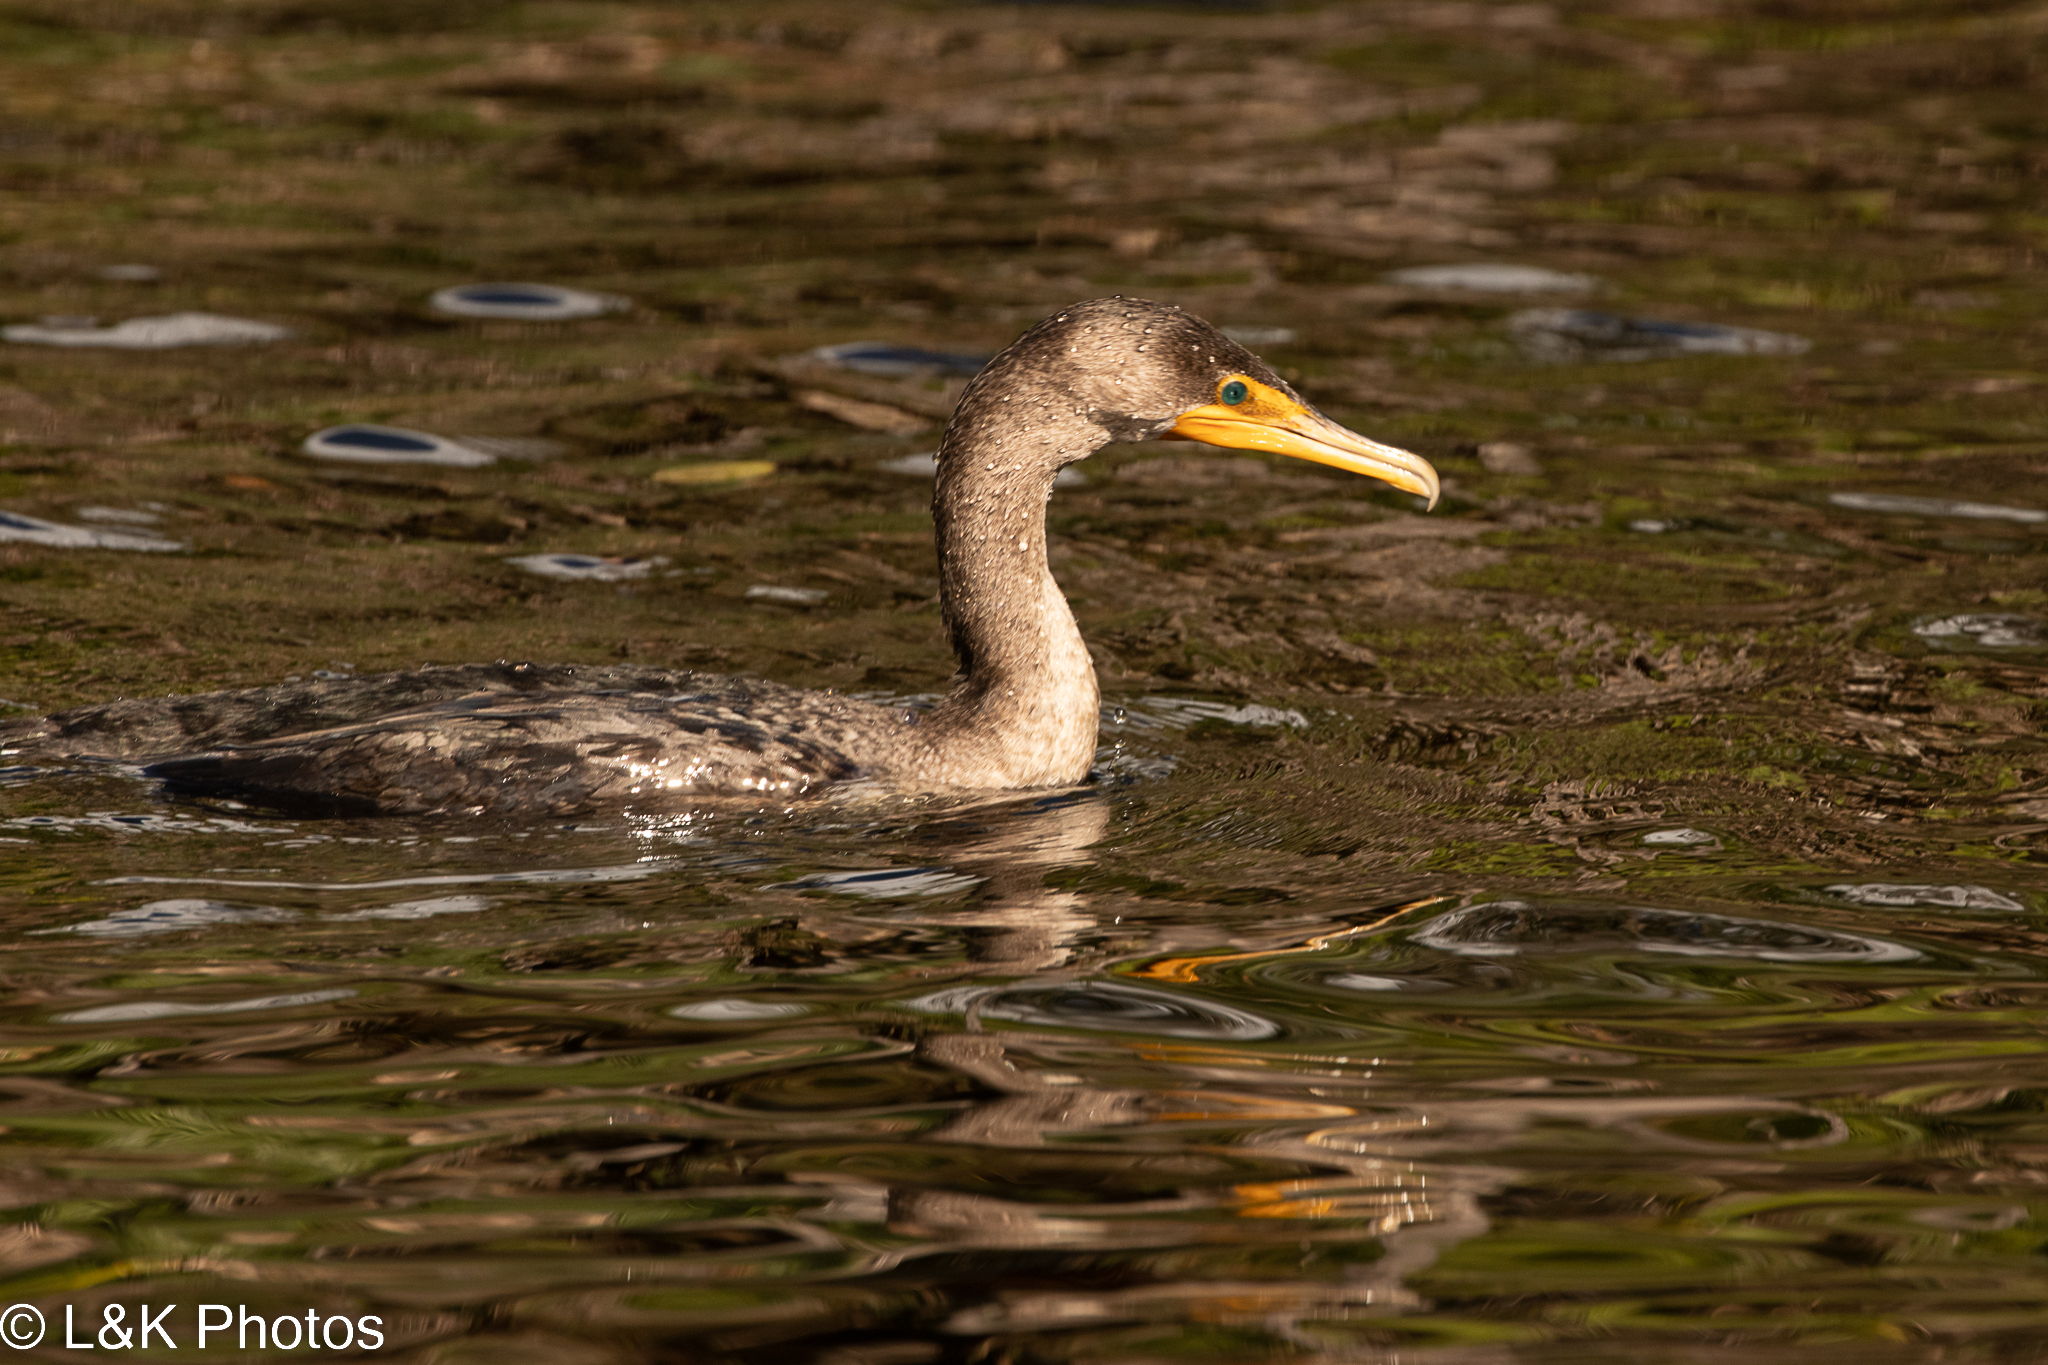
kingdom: Animalia
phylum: Chordata
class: Aves
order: Suliformes
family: Phalacrocoracidae
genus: Phalacrocorax
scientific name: Phalacrocorax auritus
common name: Double-crested cormorant
